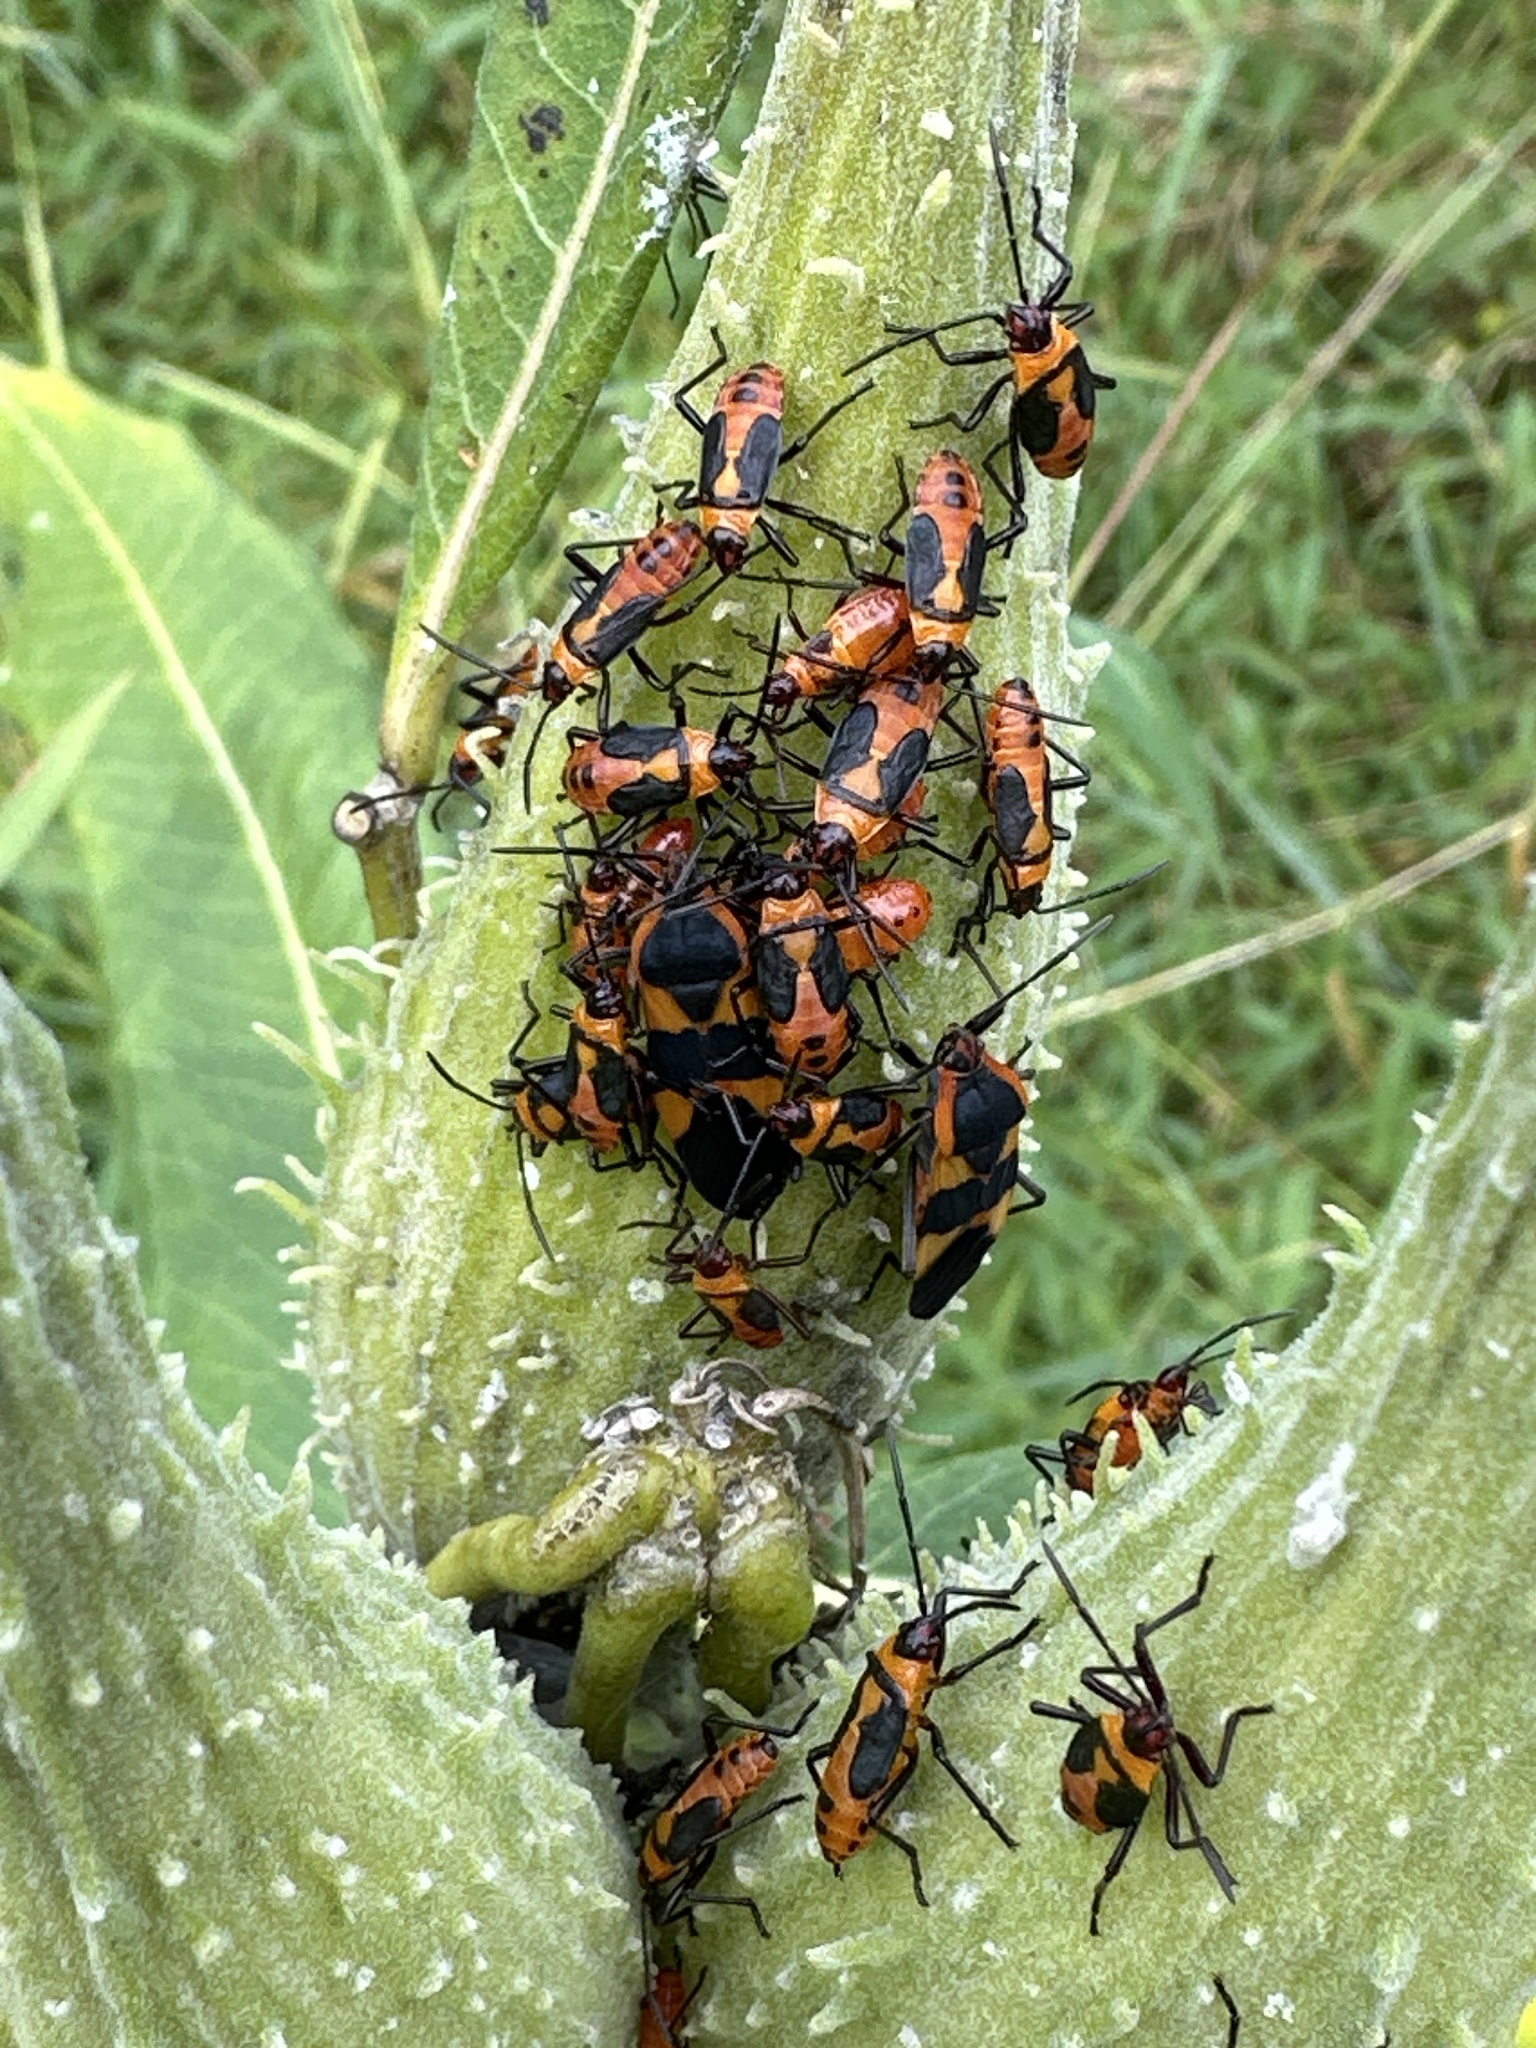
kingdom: Animalia
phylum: Arthropoda
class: Insecta
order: Hemiptera
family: Lygaeidae
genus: Oncopeltus
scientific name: Oncopeltus fasciatus
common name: Large milkweed bug
